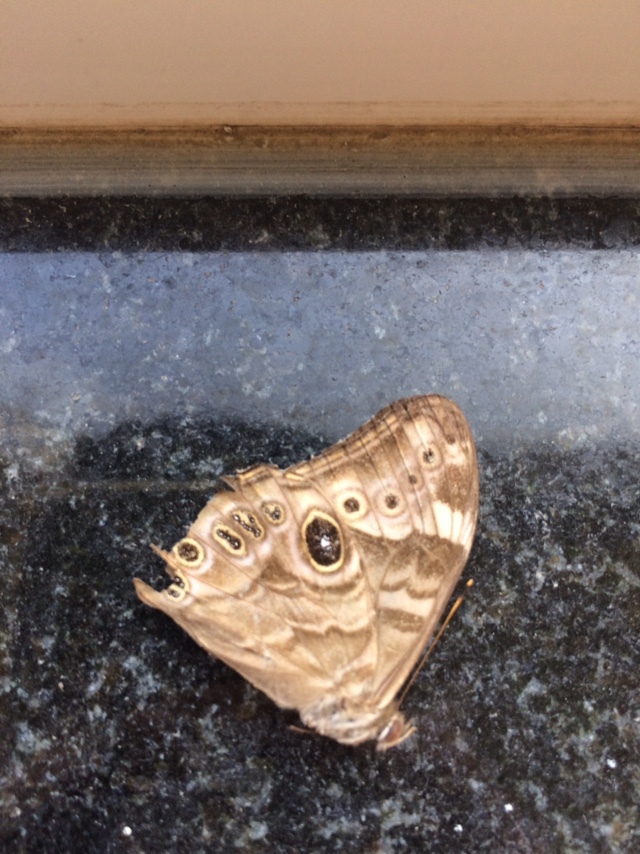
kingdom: Animalia
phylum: Arthropoda
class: Insecta
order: Lepidoptera
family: Nymphalidae
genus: Lethe
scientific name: Lethe rohria
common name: Common treebrown
